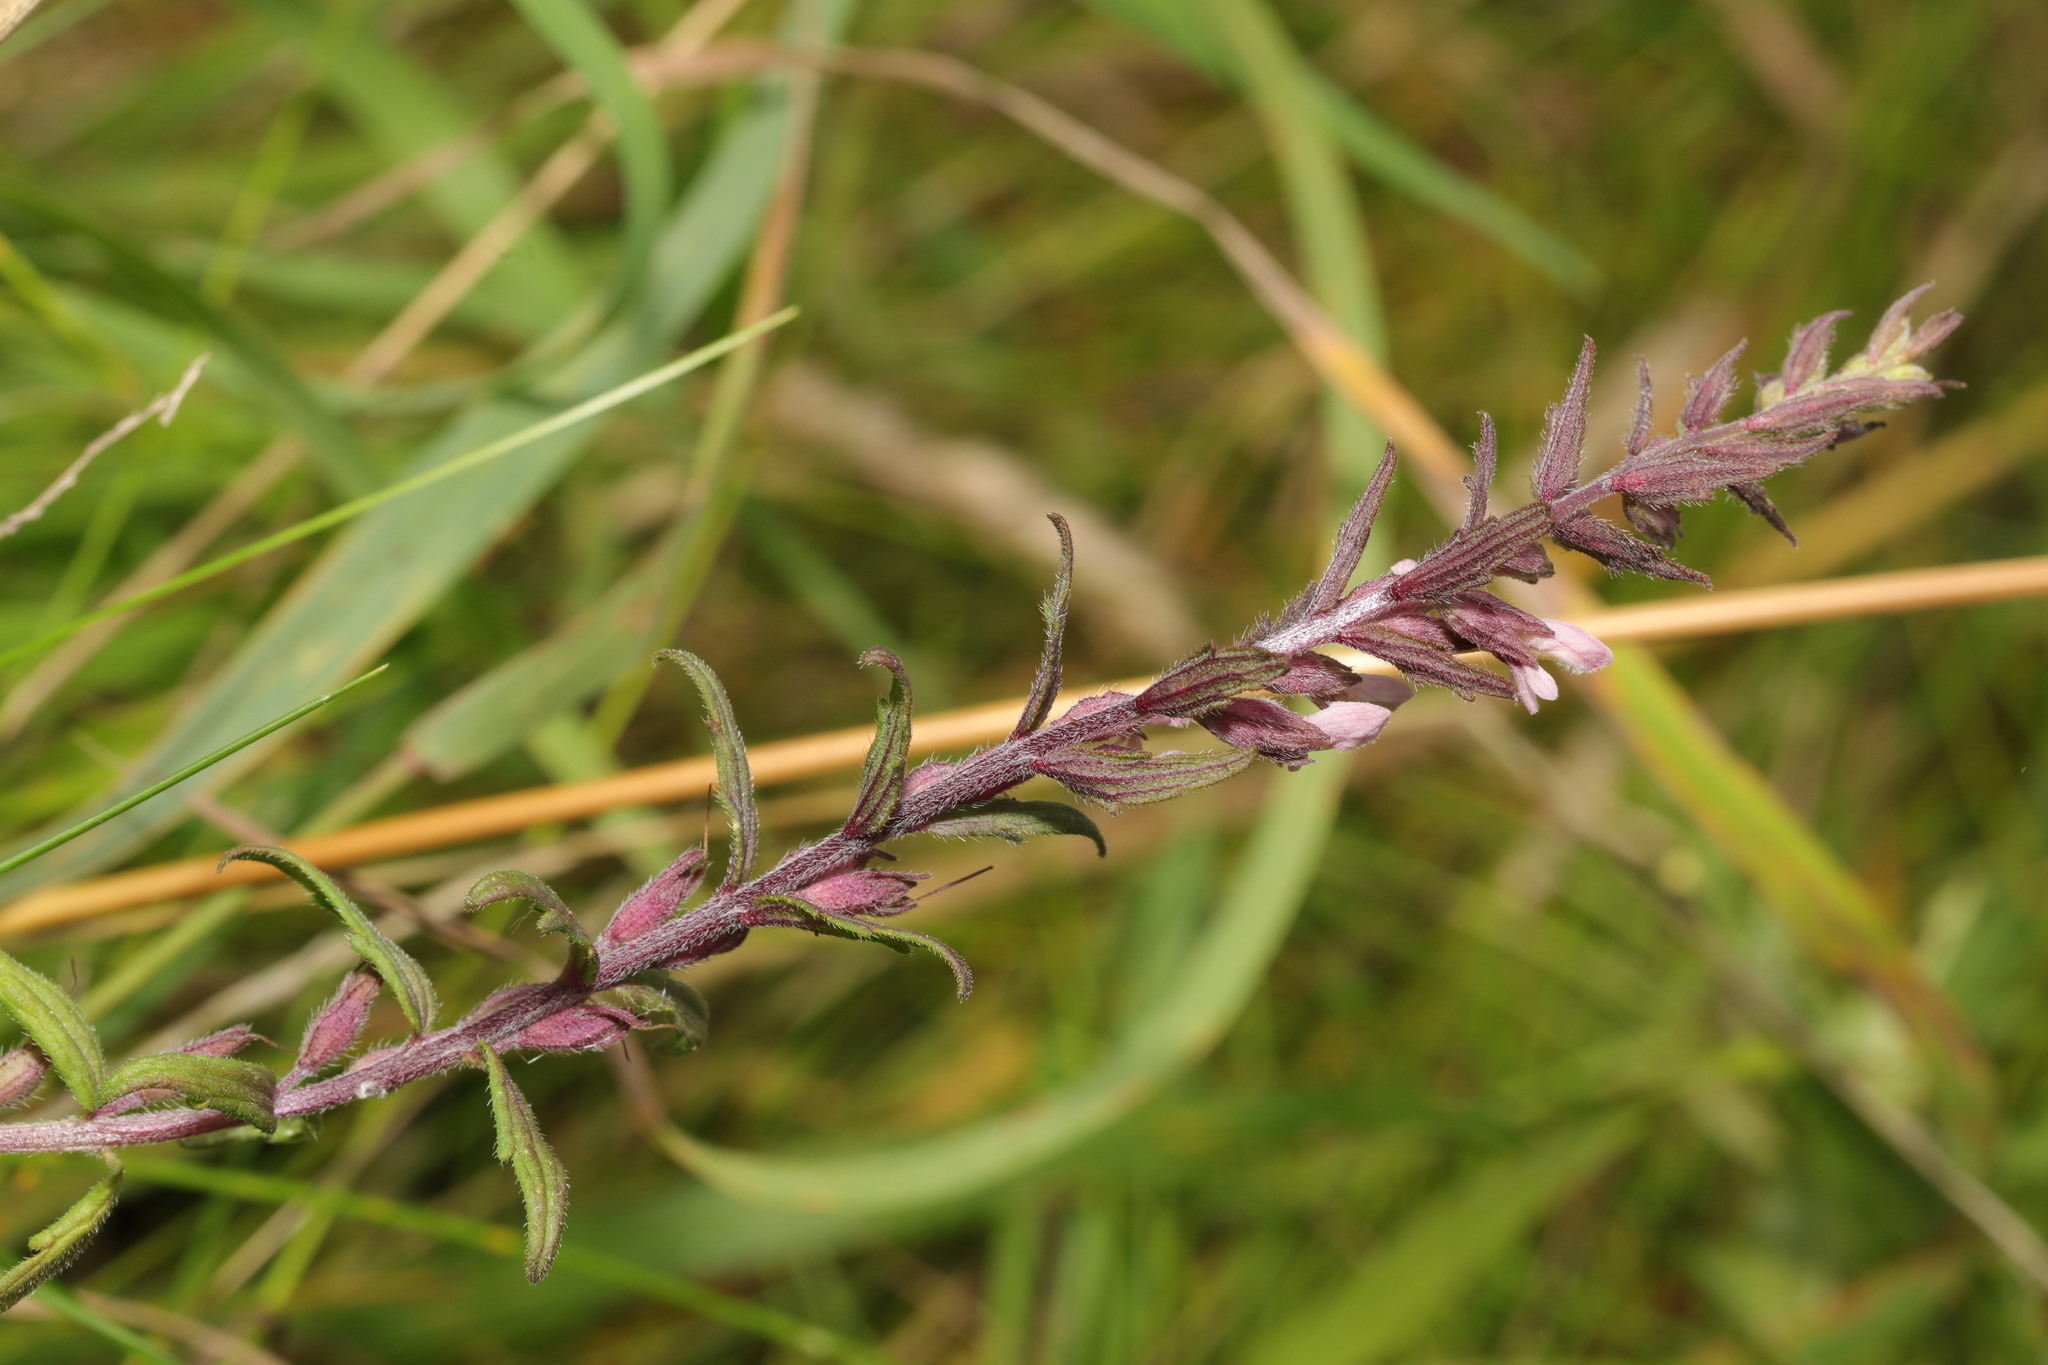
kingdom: Plantae
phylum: Tracheophyta
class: Magnoliopsida
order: Lamiales
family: Orobanchaceae
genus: Odontites
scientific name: Odontites vulgaris
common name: Broomrape
